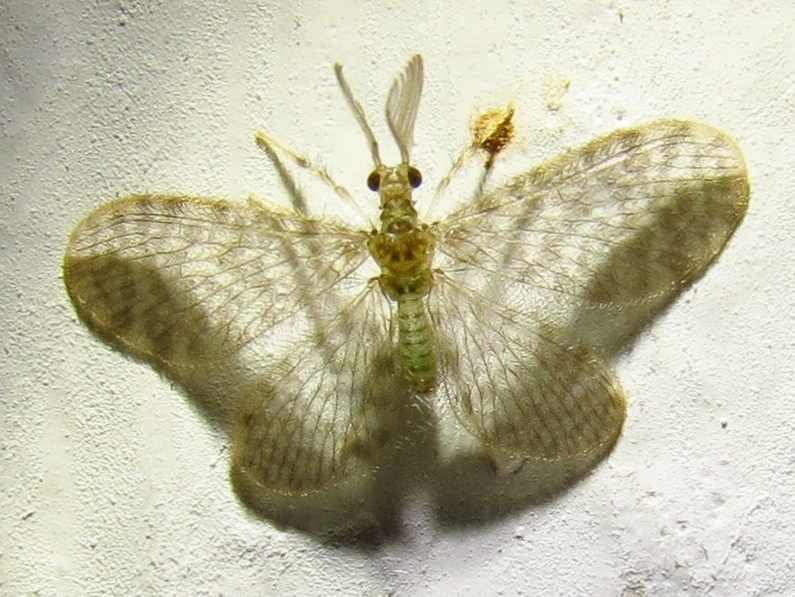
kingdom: Animalia
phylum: Arthropoda
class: Insecta
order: Neuroptera
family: Dilaridae
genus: Nallachius
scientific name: Nallachius americanus
